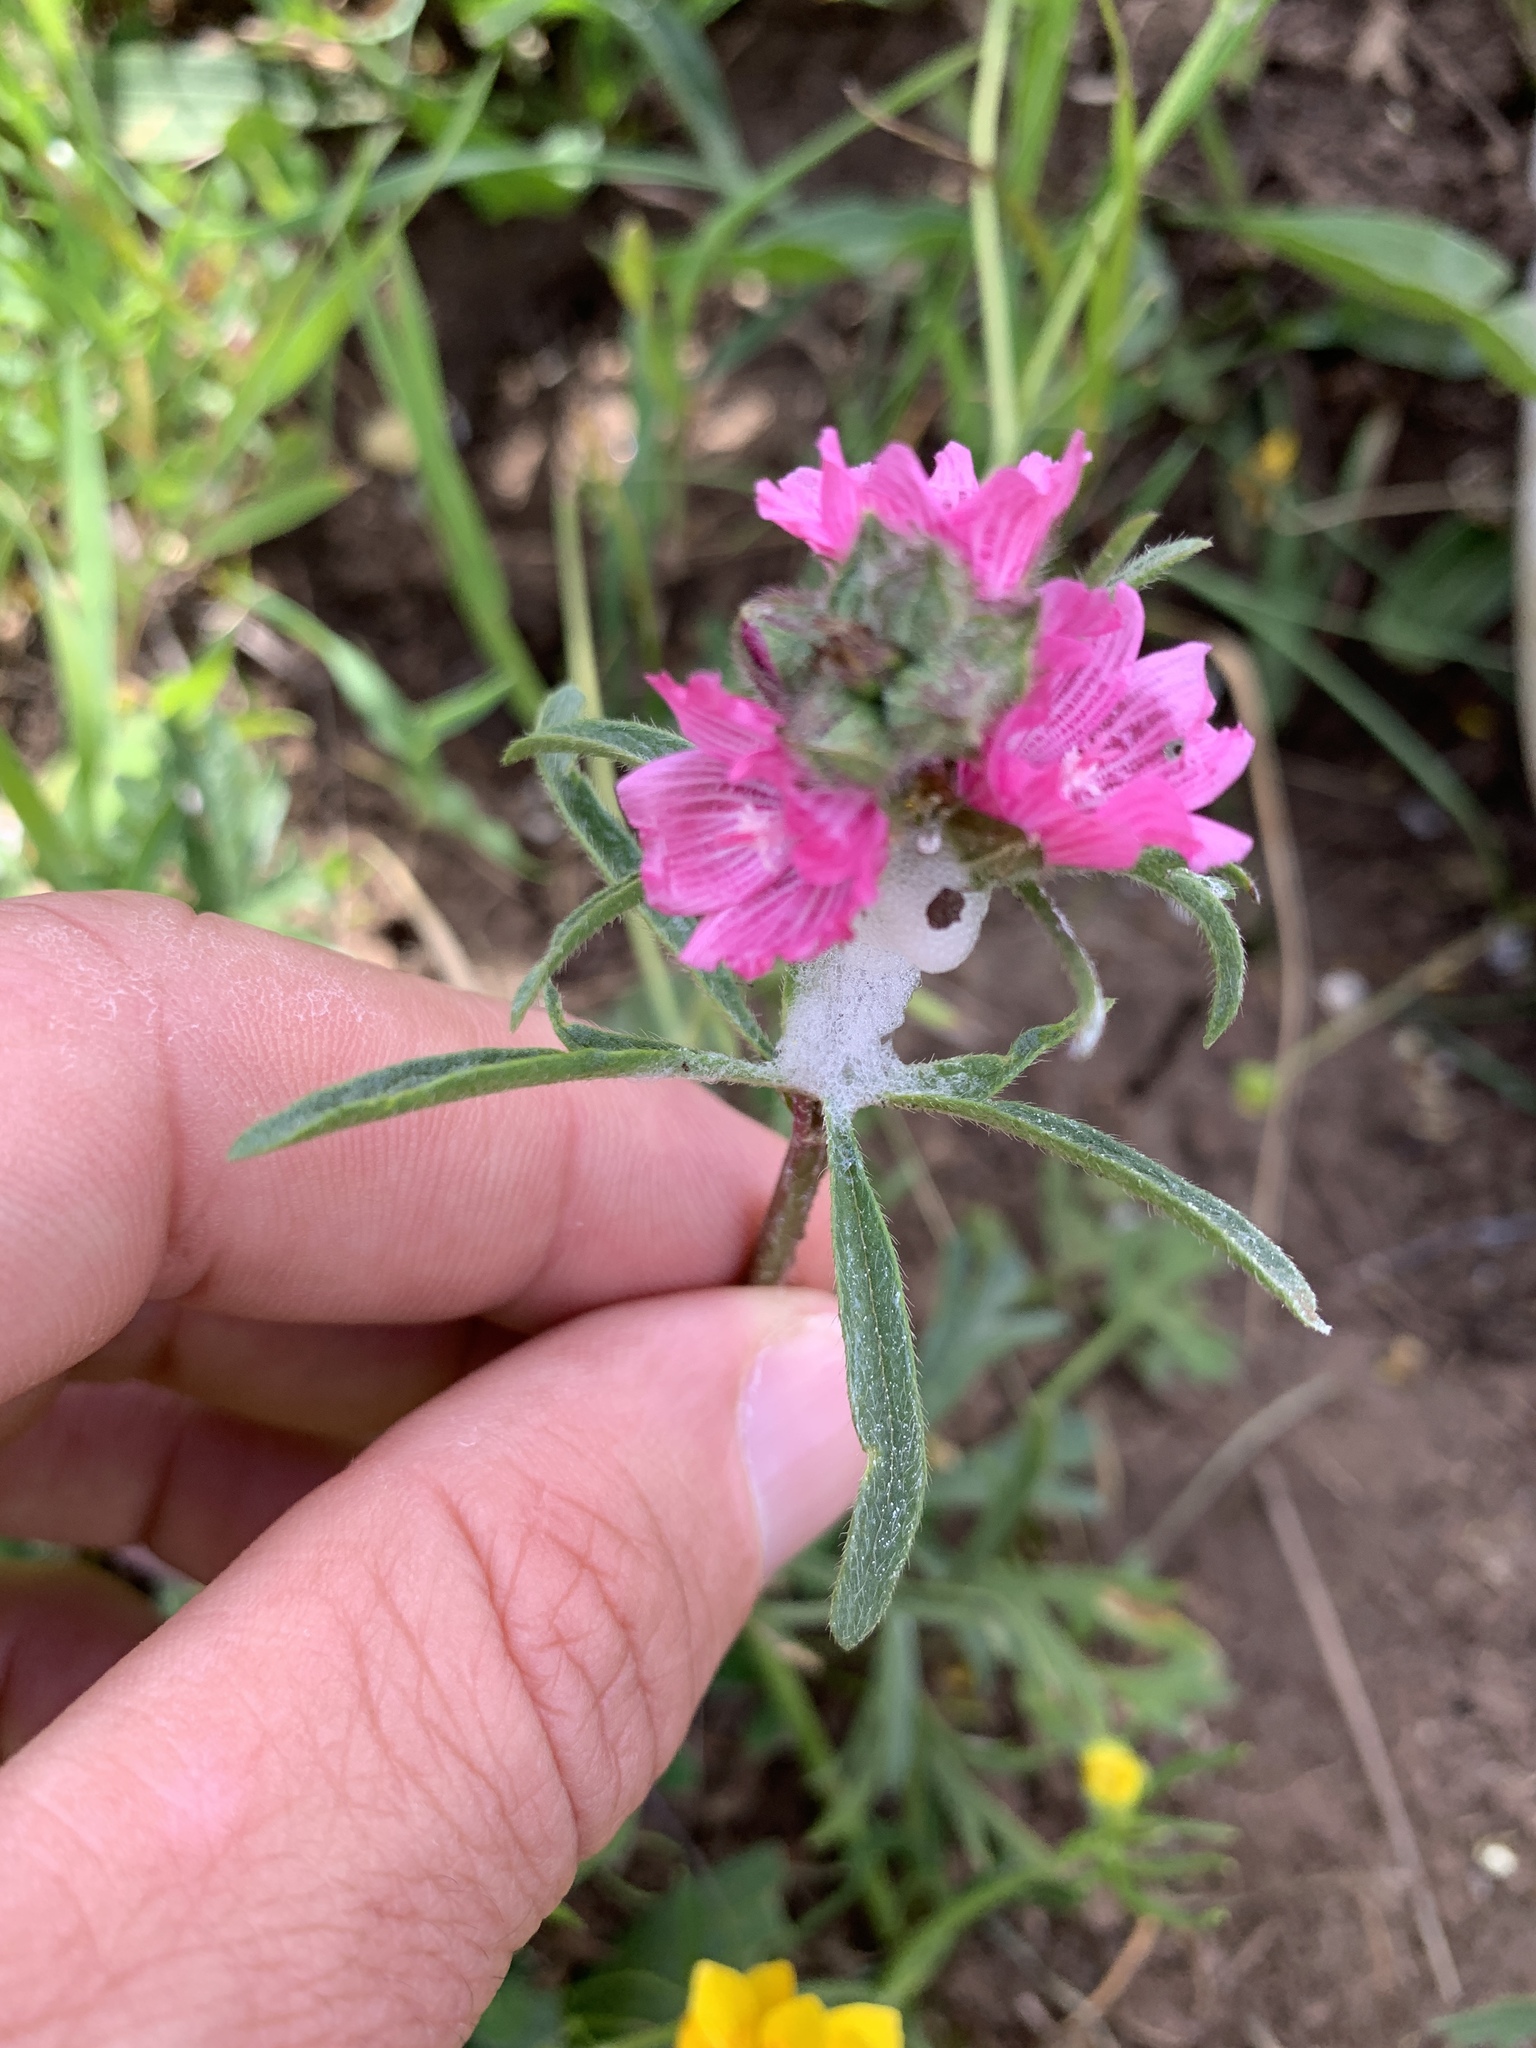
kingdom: Plantae
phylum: Tracheophyta
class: Magnoliopsida
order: Malvales
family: Malvaceae
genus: Sidalcea
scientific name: Sidalcea malviflora
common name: Greek mallow
